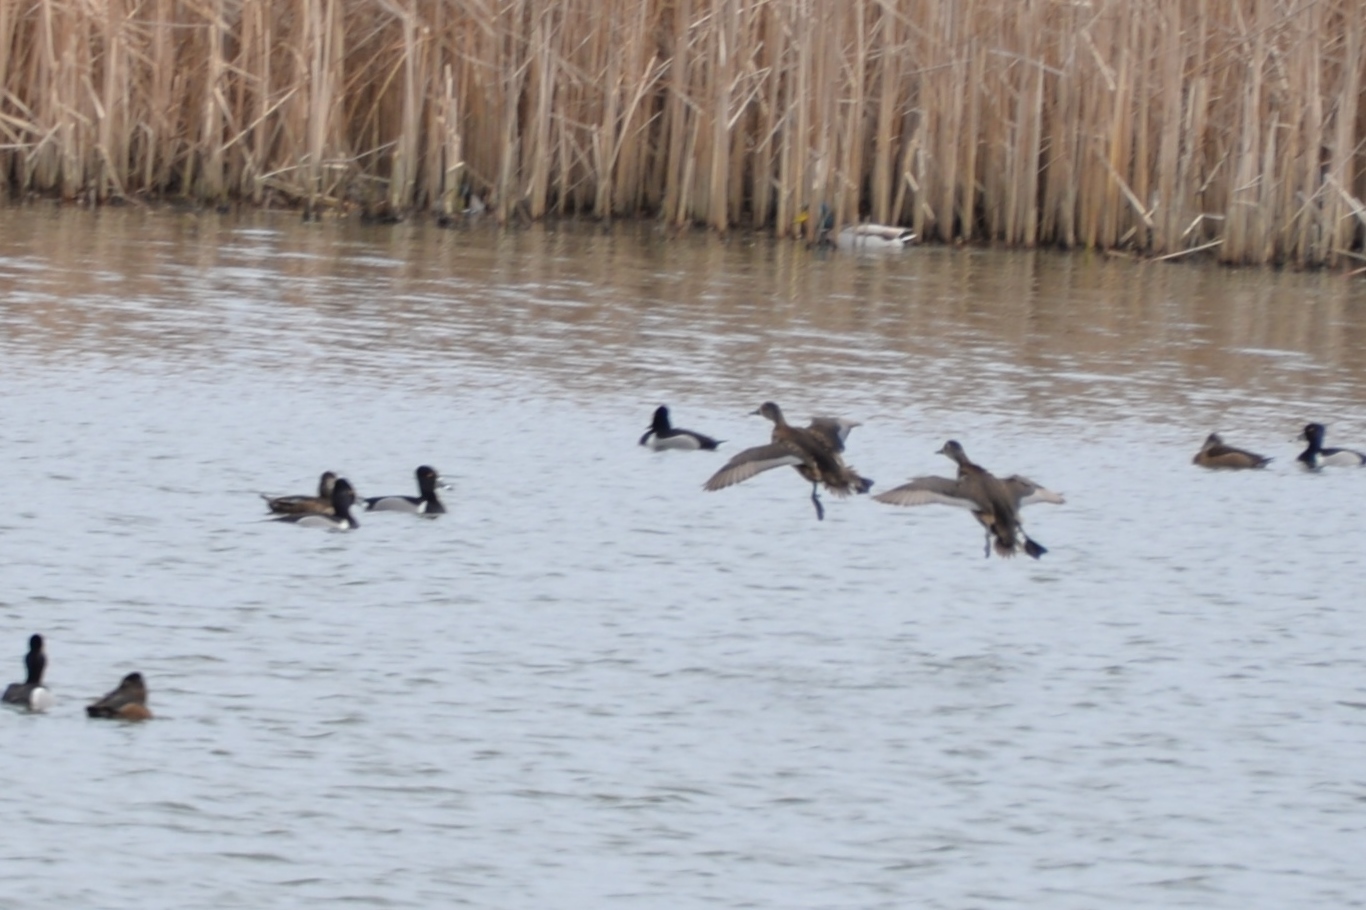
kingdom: Animalia
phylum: Chordata
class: Aves
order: Anseriformes
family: Anatidae
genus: Aythya
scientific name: Aythya collaris
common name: Ring-necked duck
